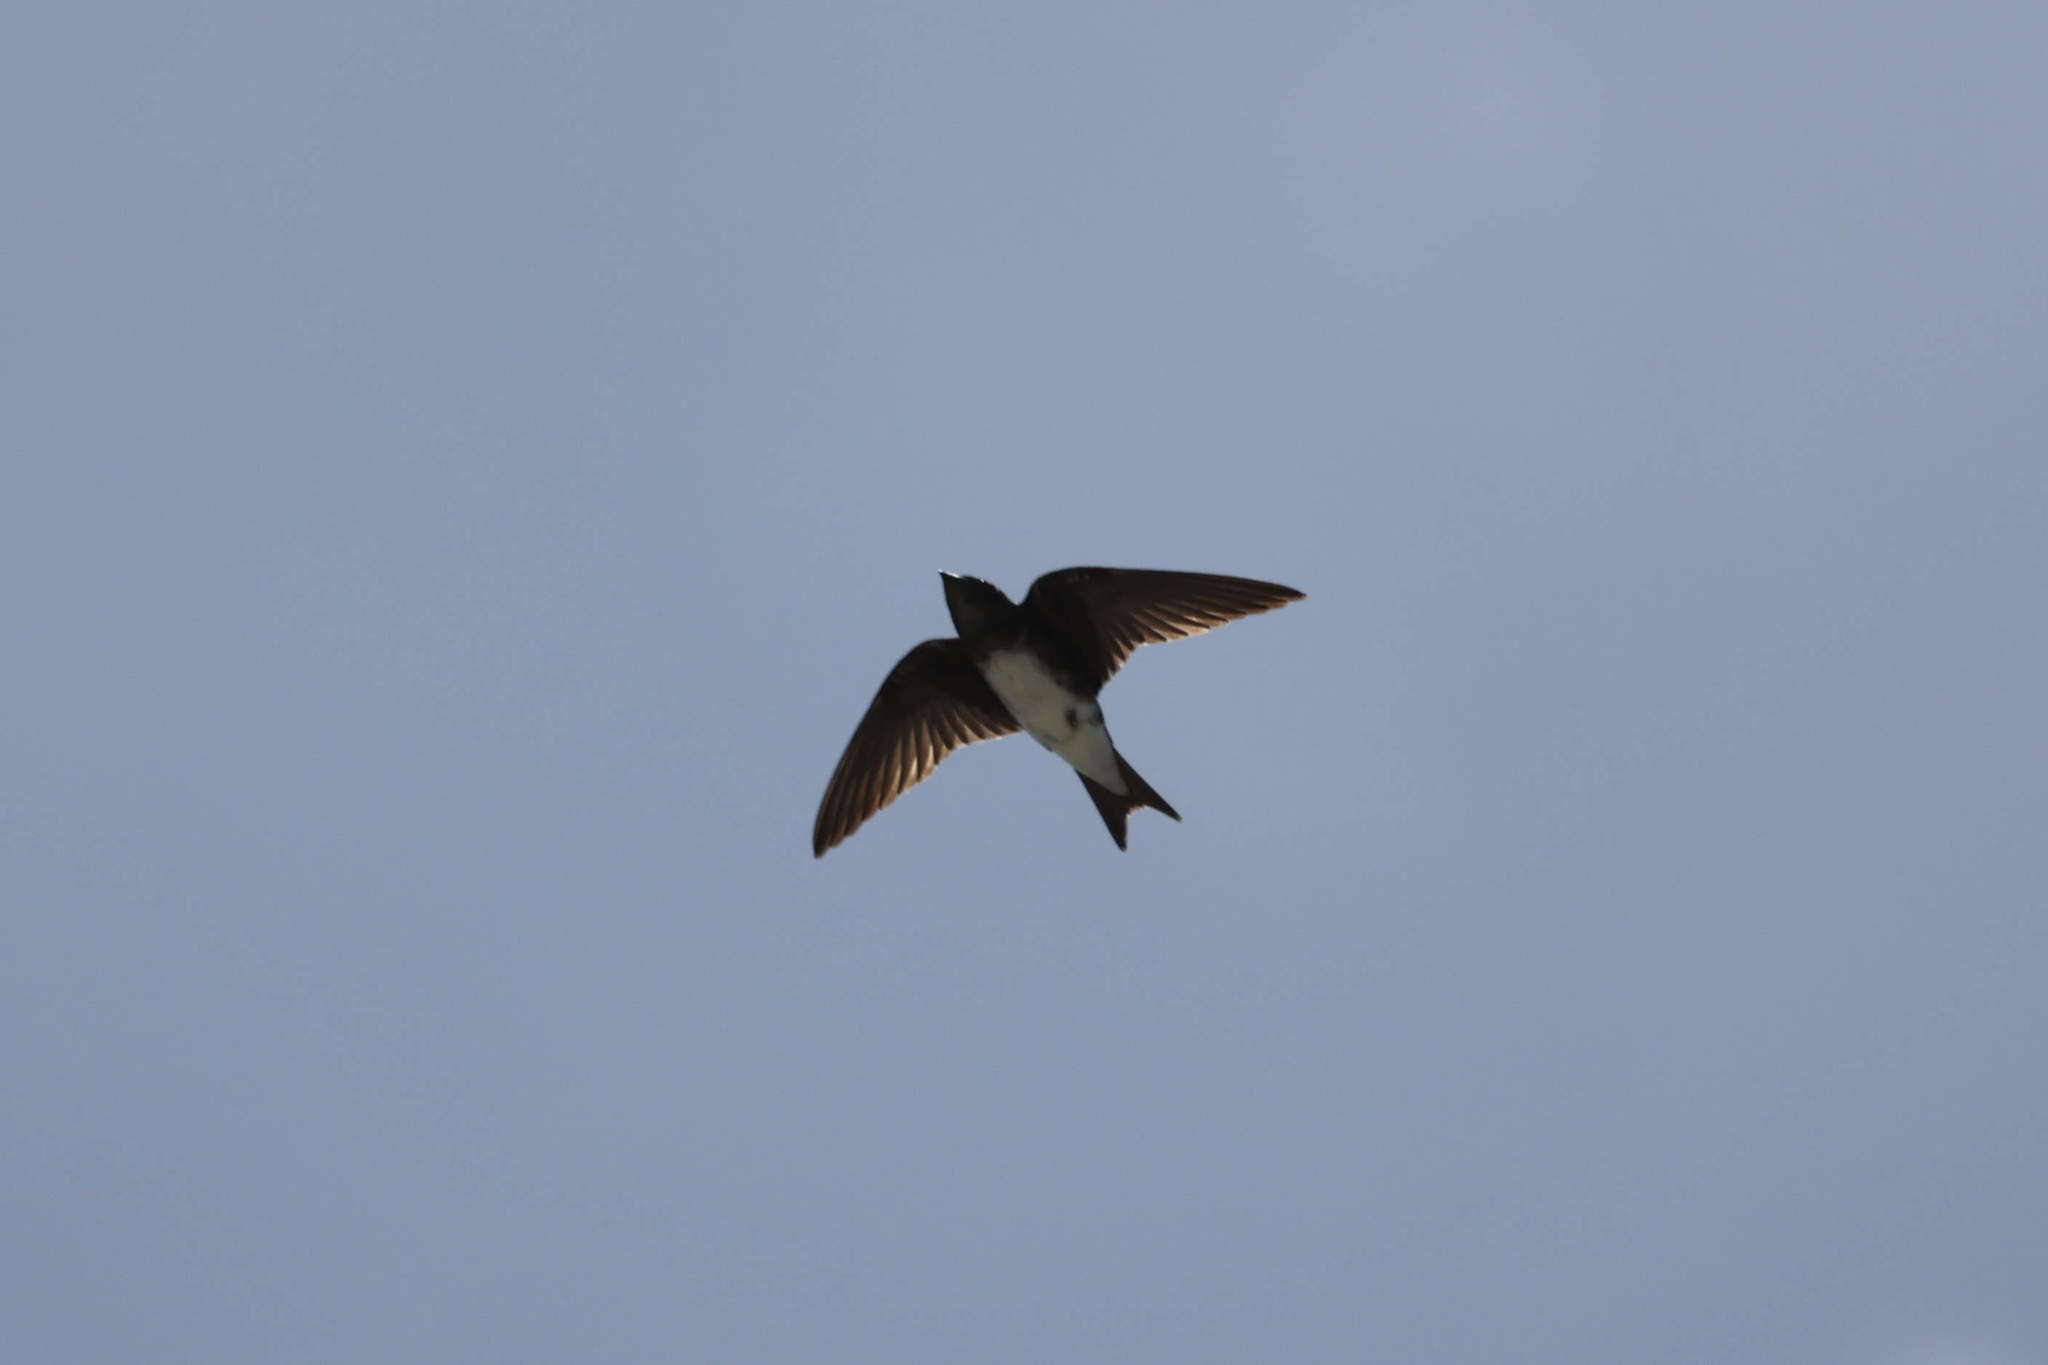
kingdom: Animalia
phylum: Chordata
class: Aves
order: Passeriformes
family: Hirundinidae
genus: Progne
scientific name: Progne dominicensis
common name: Caribbean martin
